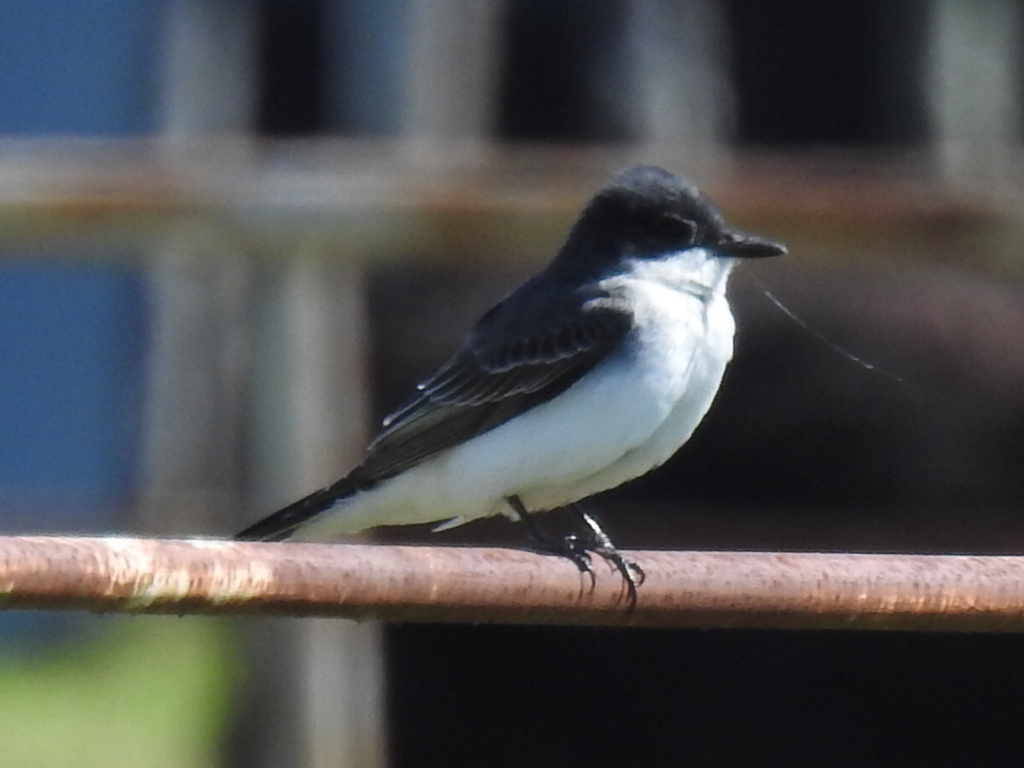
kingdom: Animalia
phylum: Chordata
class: Aves
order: Passeriformes
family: Tyrannidae
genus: Tyrannus
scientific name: Tyrannus tyrannus
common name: Eastern kingbird
